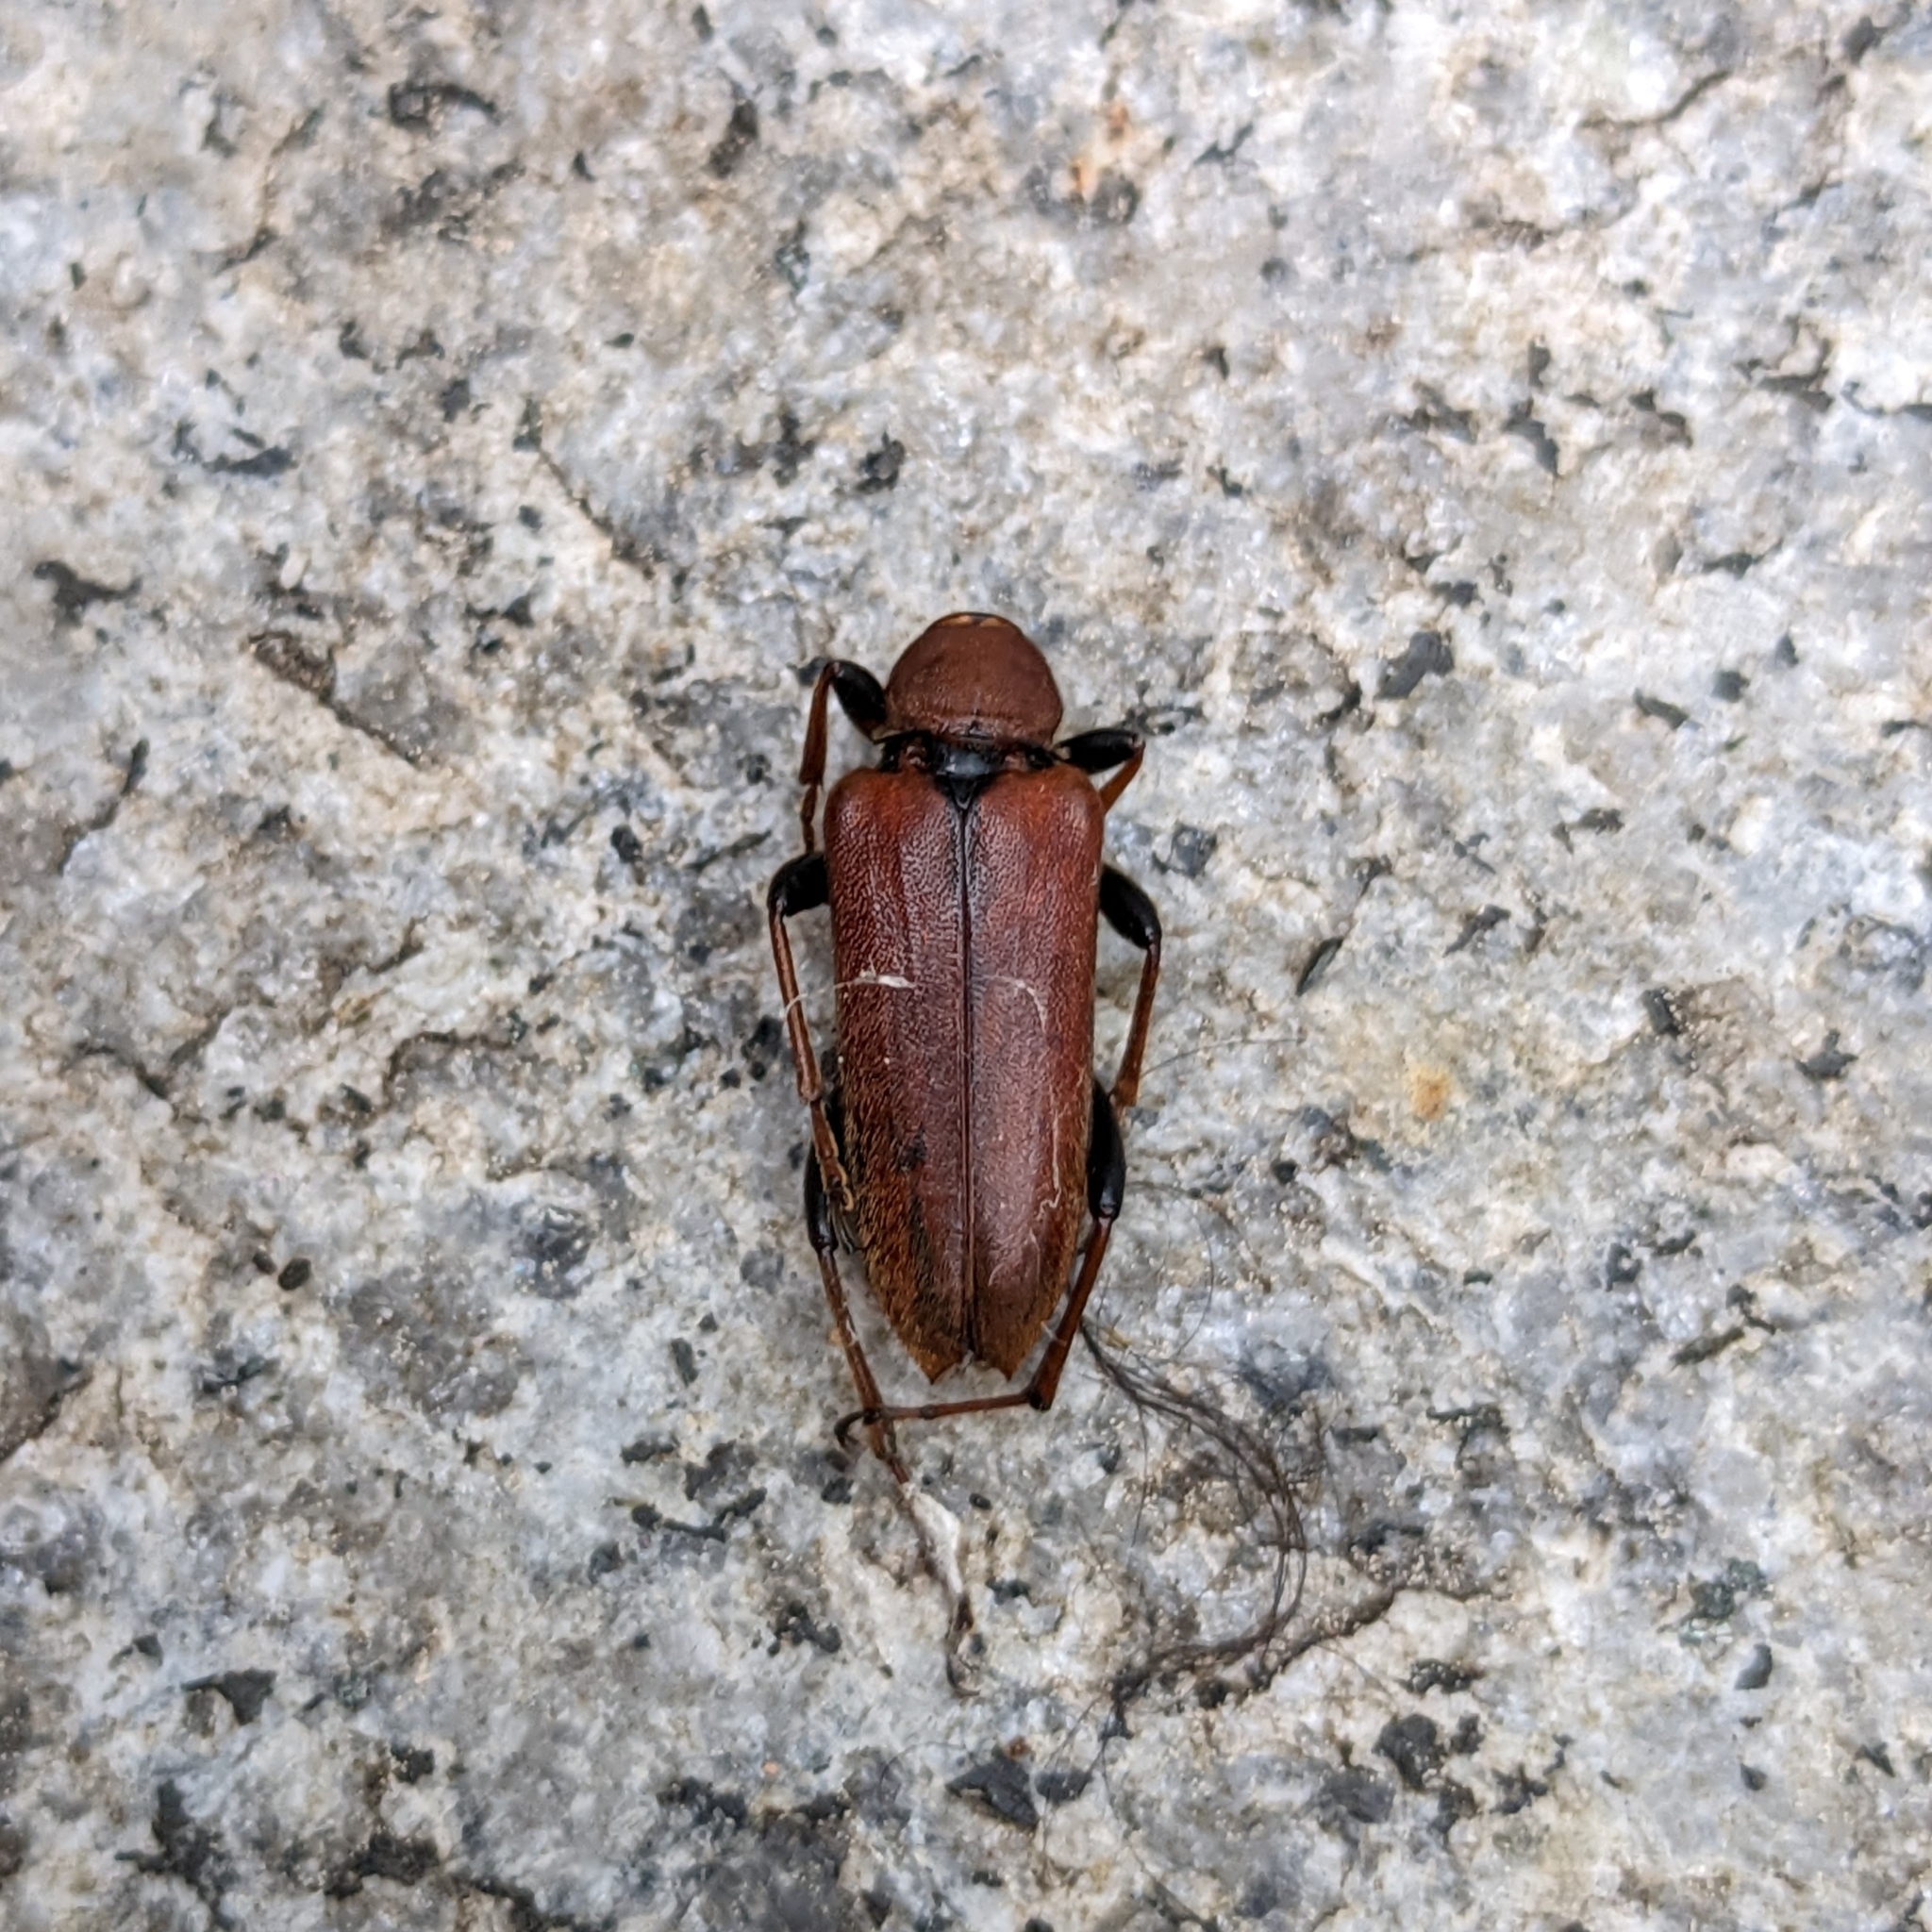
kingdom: Animalia
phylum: Arthropoda
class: Insecta
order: Coleoptera
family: Cerambycidae
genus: Stictoleptura
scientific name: Stictoleptura rubra
